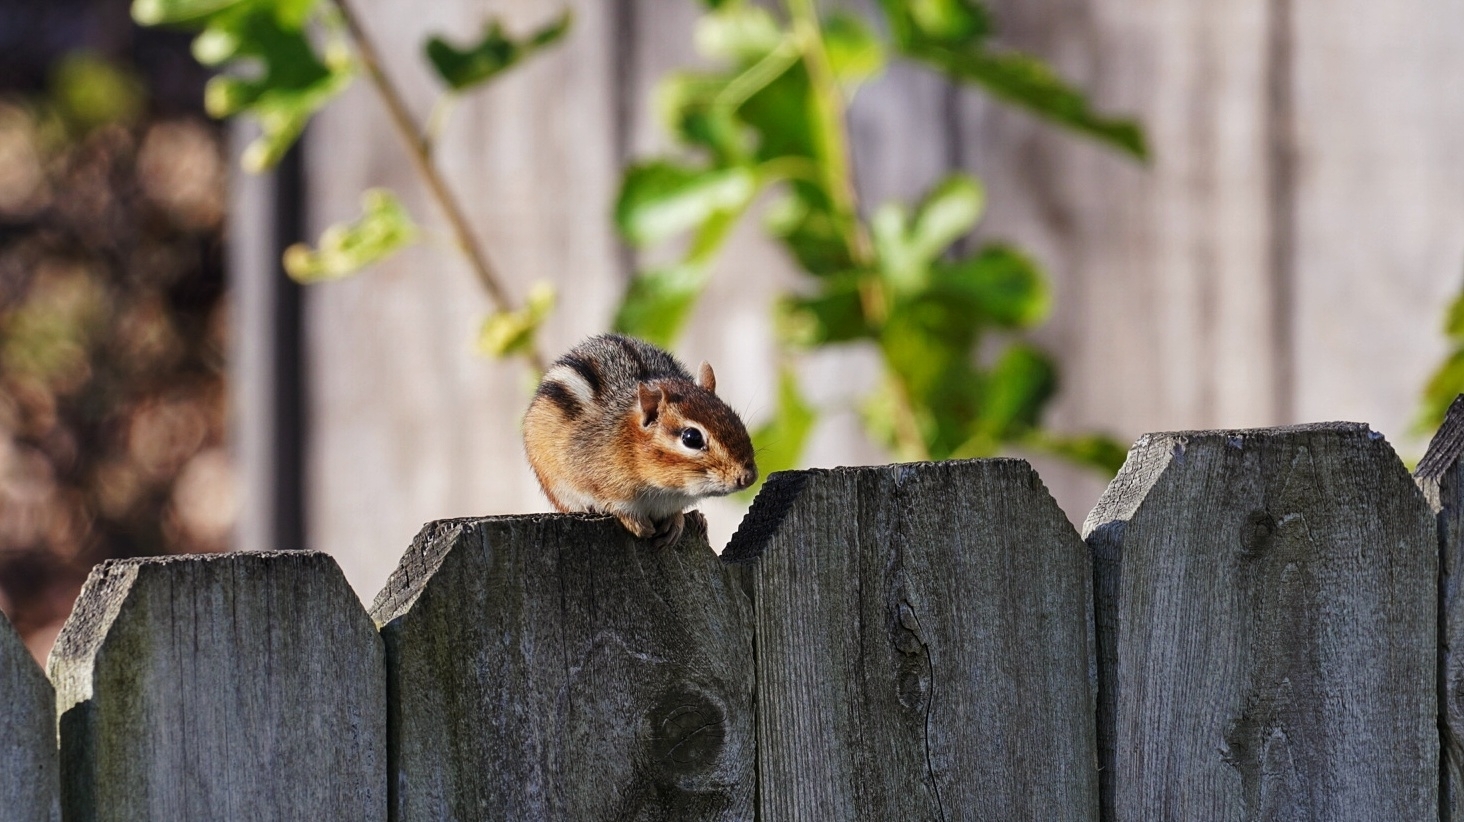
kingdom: Animalia
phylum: Chordata
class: Mammalia
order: Rodentia
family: Sciuridae
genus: Tamias
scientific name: Tamias striatus
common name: Eastern chipmunk
